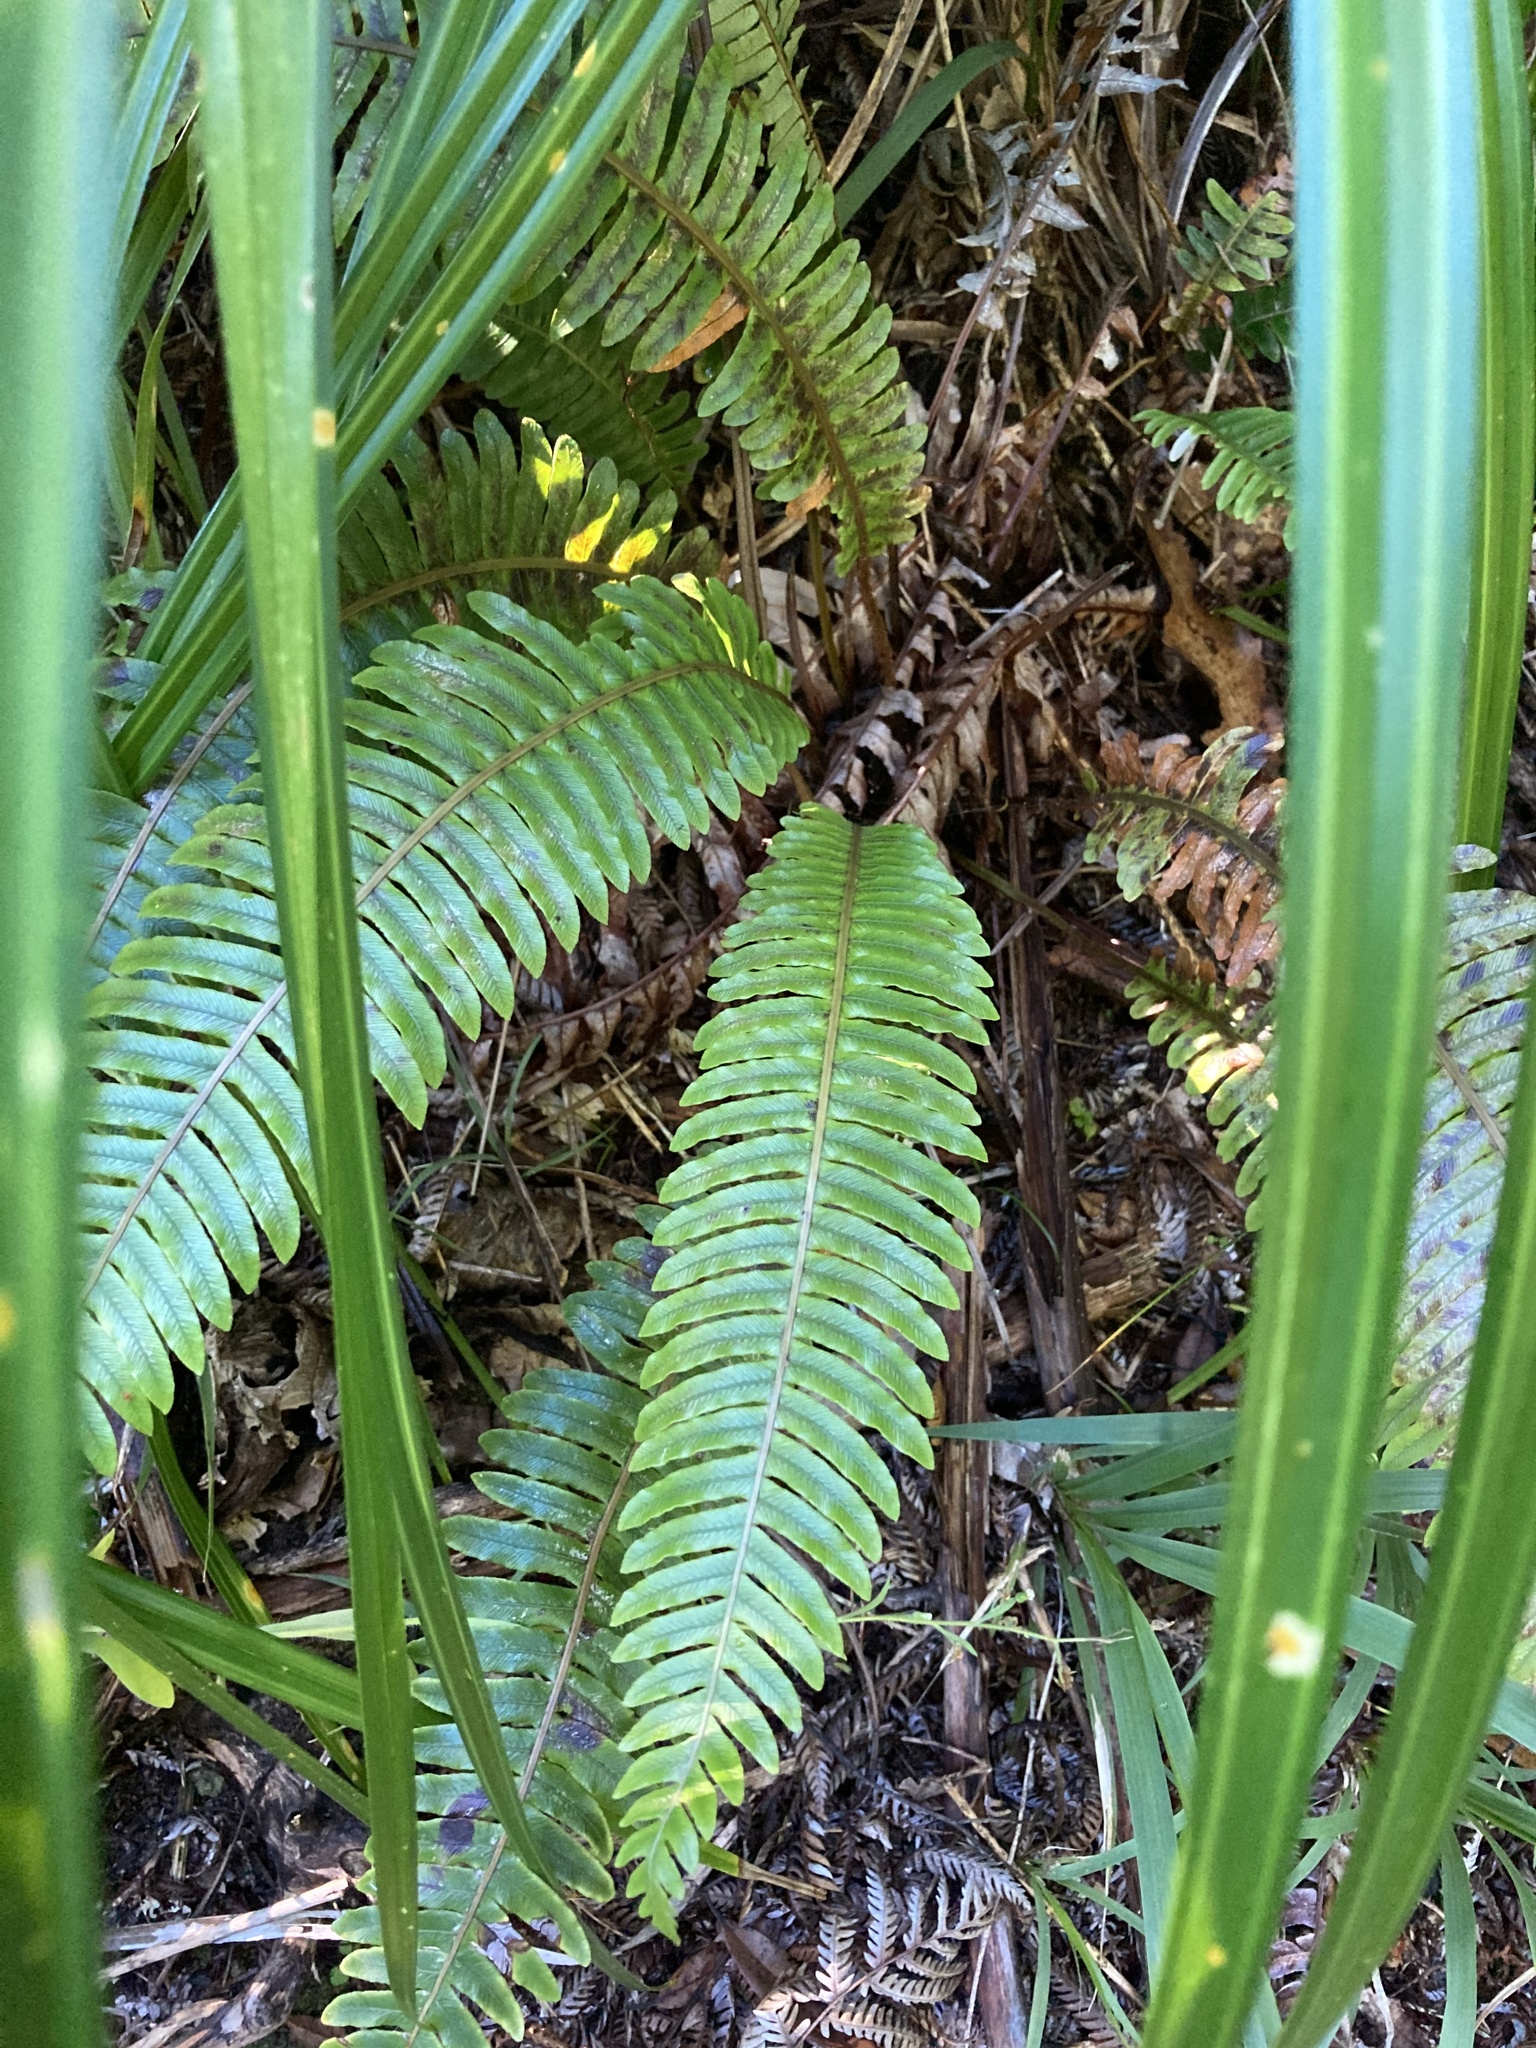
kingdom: Plantae
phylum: Tracheophyta
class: Polypodiopsida
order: Polypodiales
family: Blechnaceae
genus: Lomaria
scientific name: Lomaria discolor
